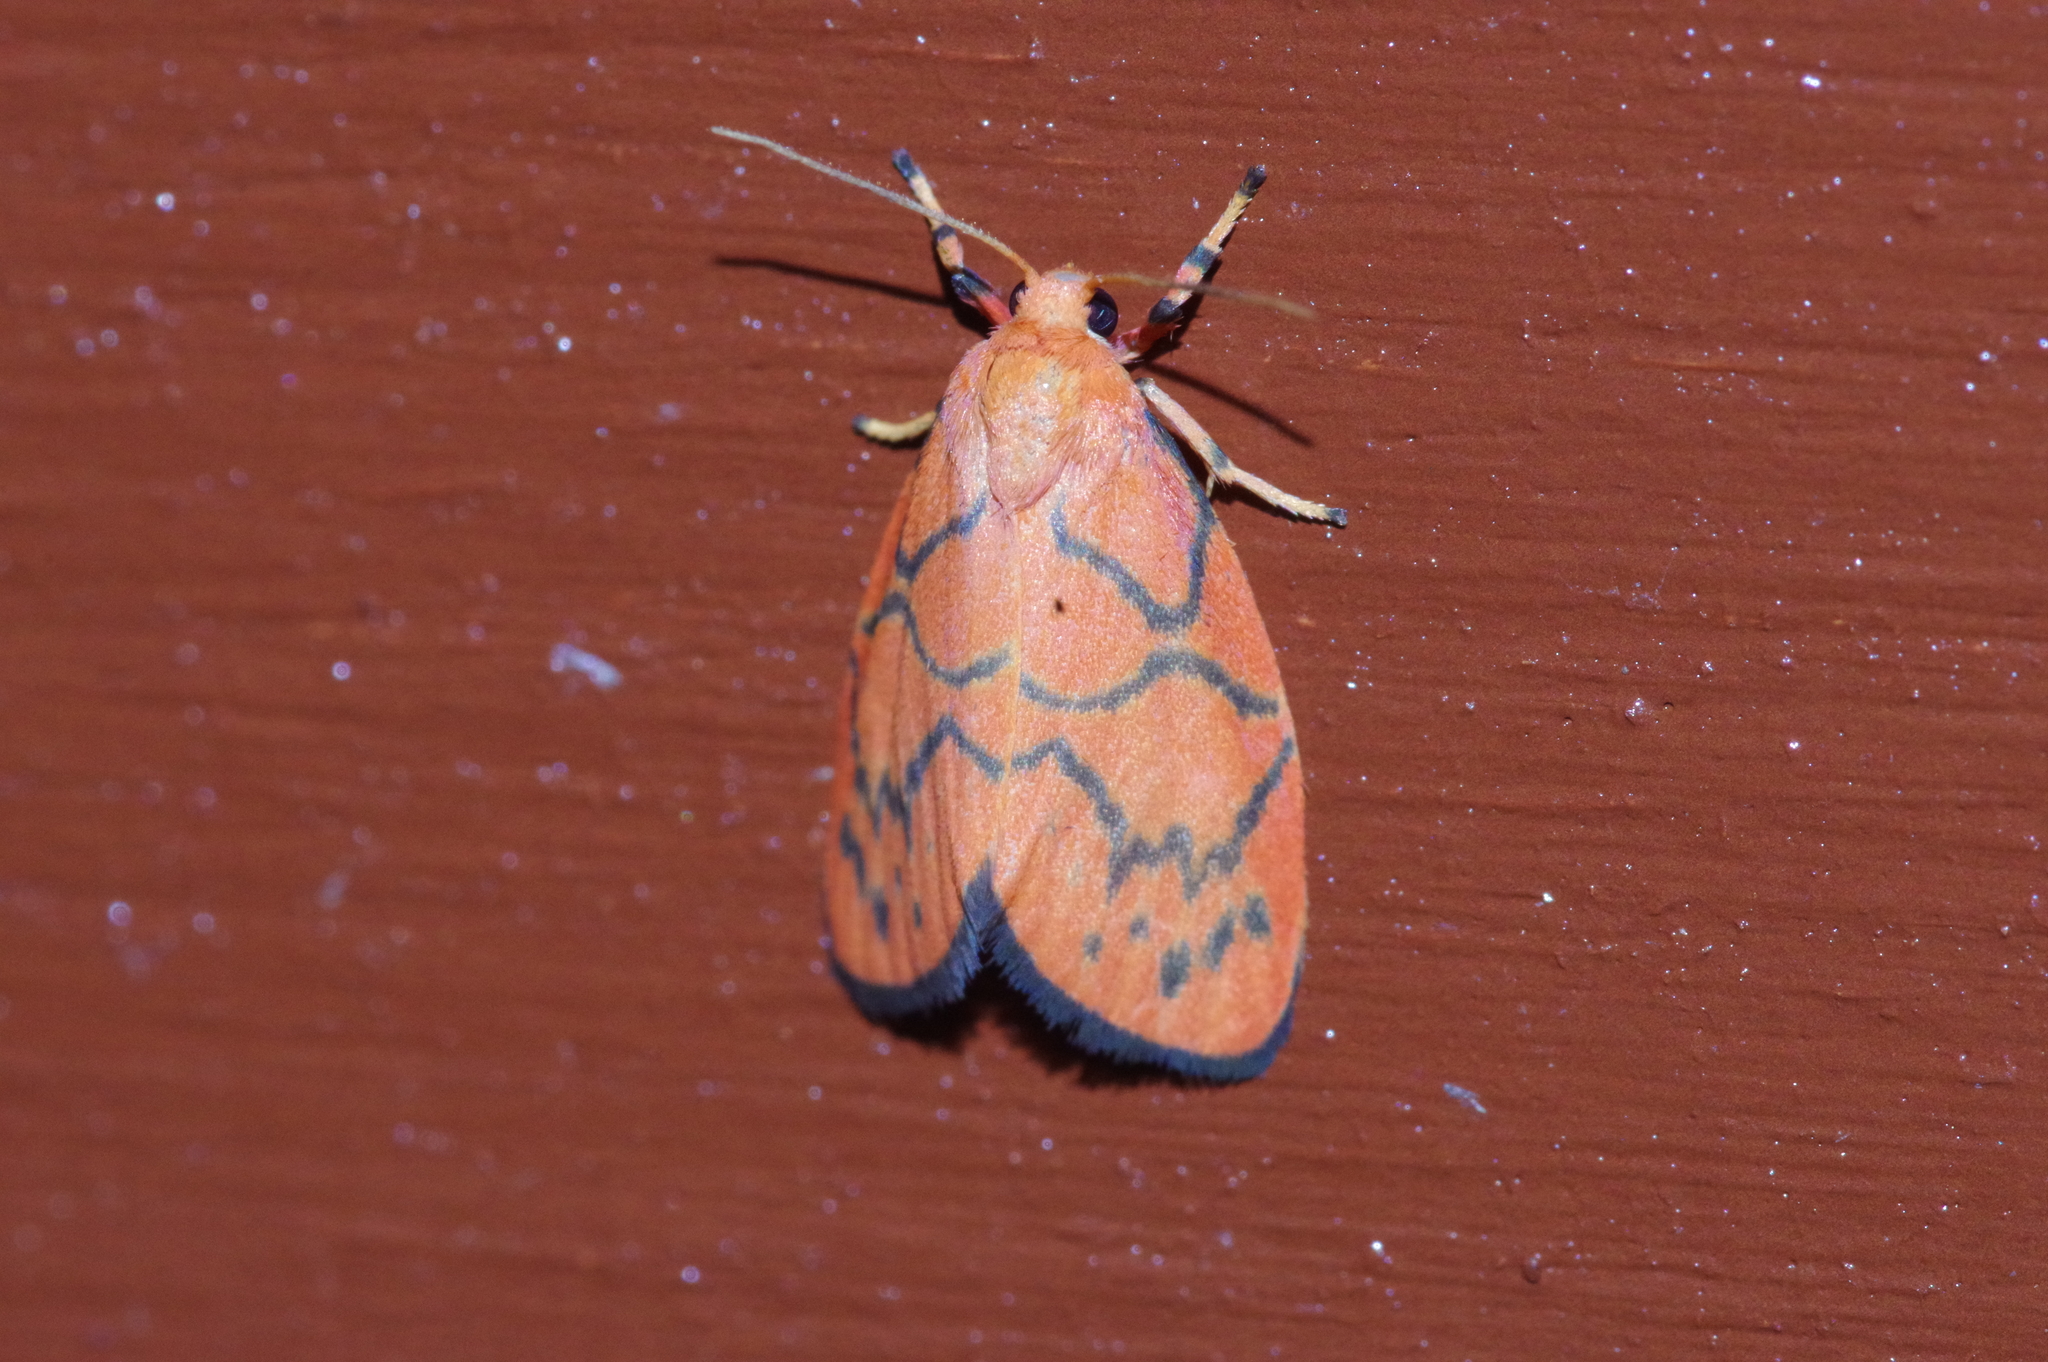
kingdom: Animalia
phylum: Arthropoda
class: Insecta
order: Lepidoptera
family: Erebidae
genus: Aberrasine
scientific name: Aberrasine aberrans
